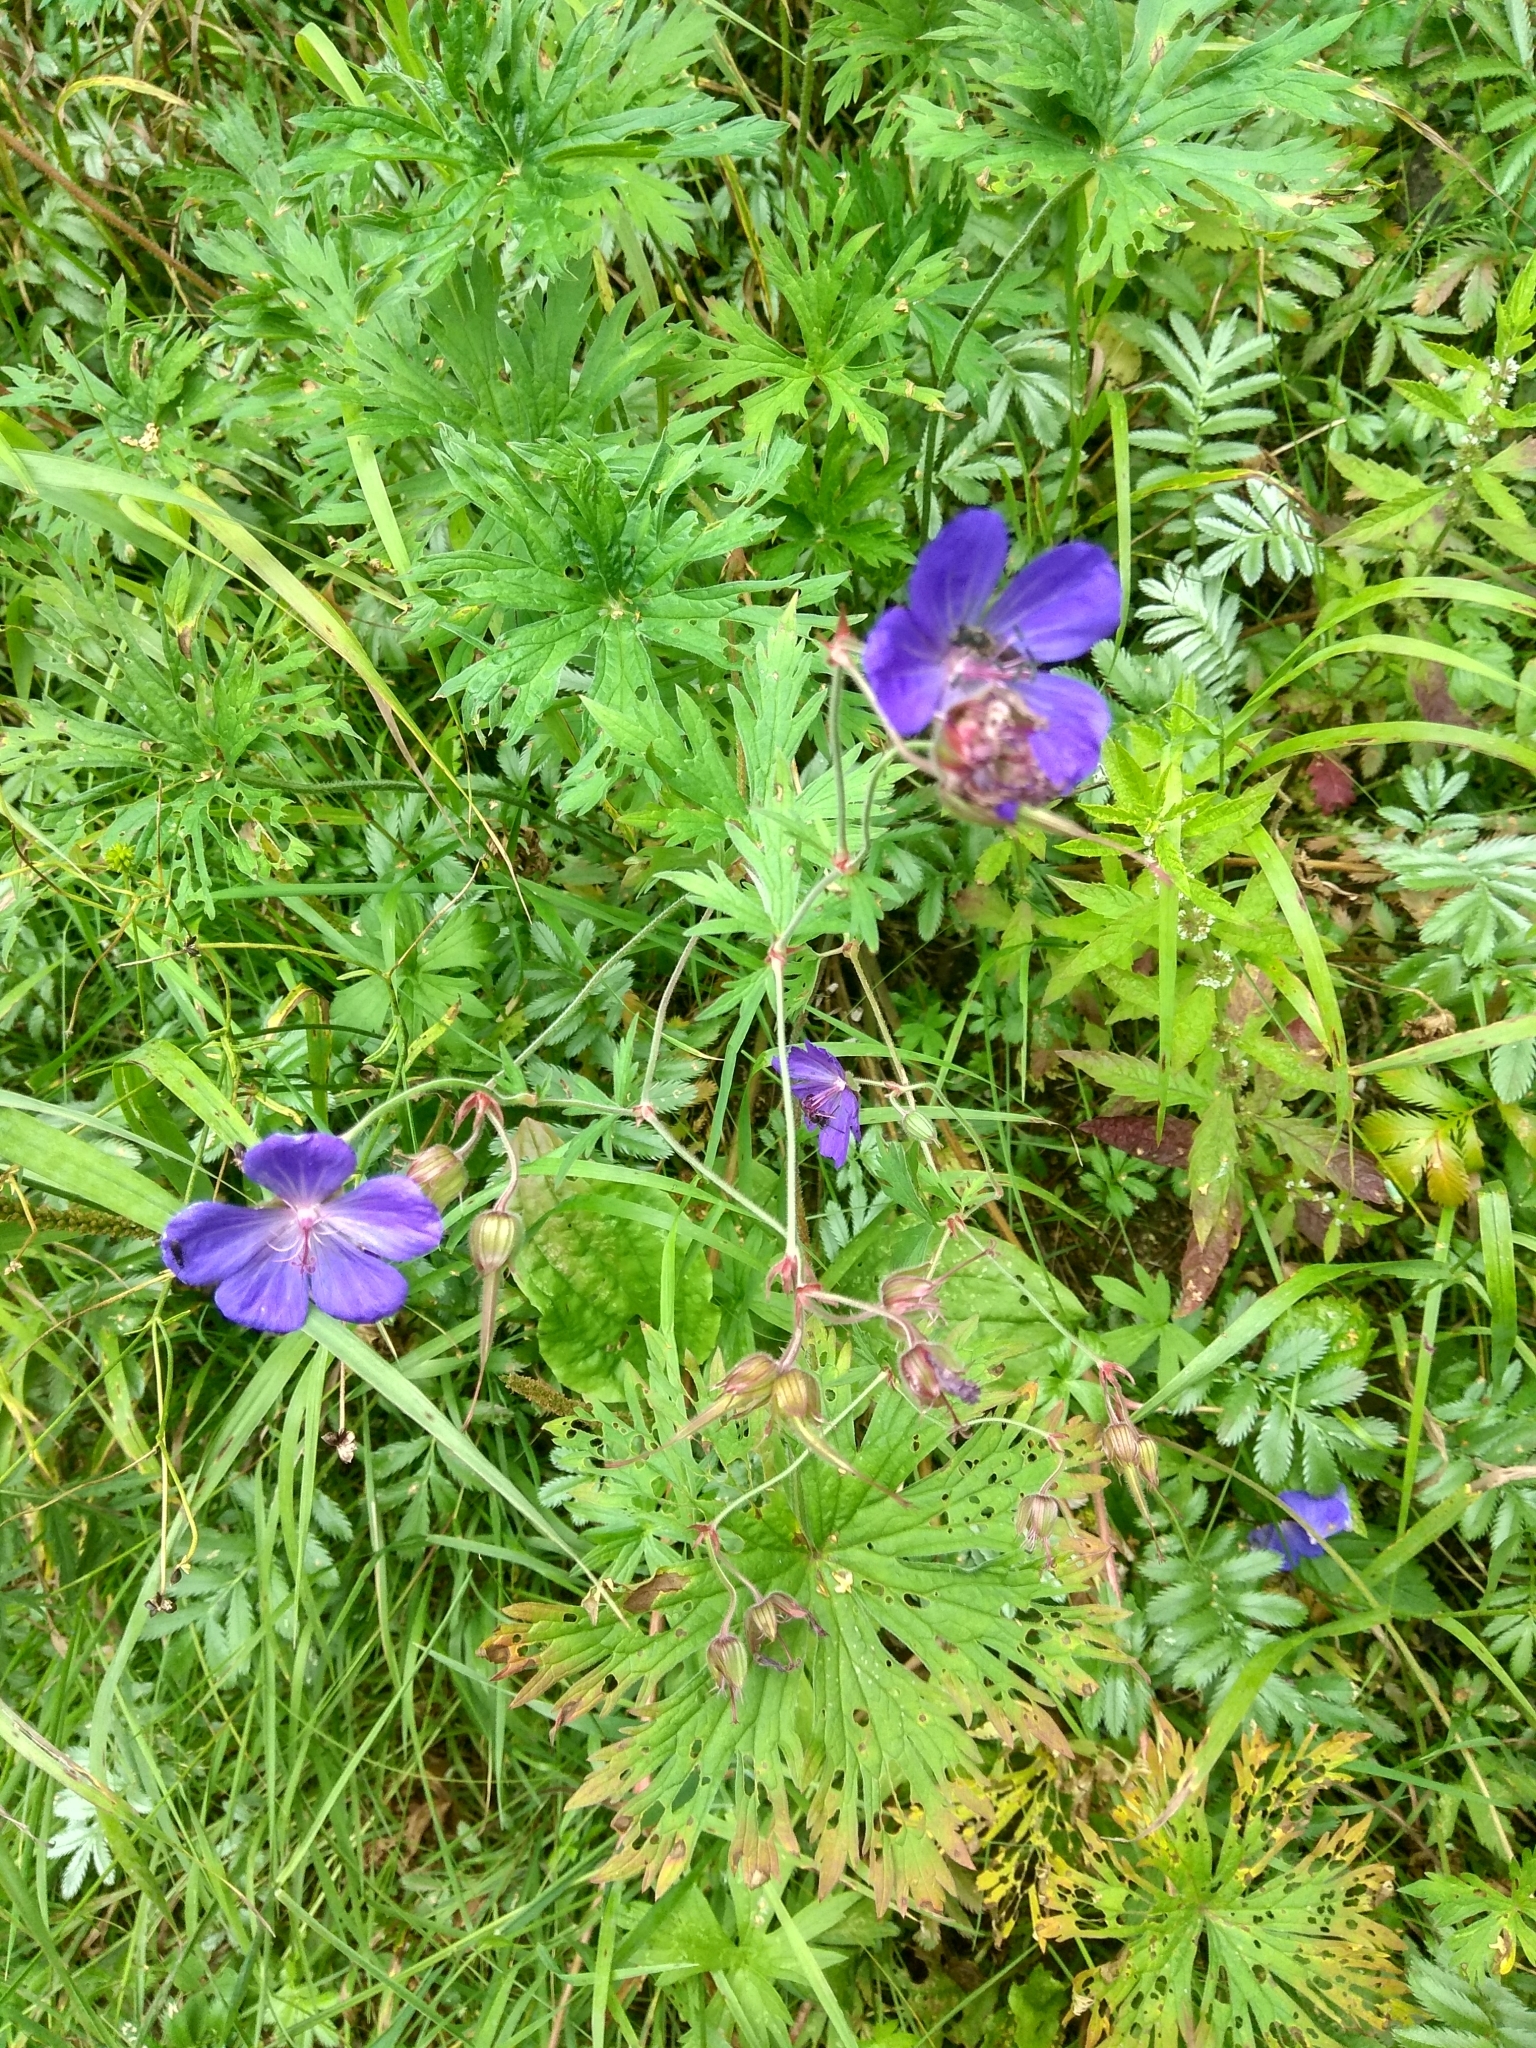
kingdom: Plantae
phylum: Tracheophyta
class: Magnoliopsida
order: Geraniales
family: Geraniaceae
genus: Geranium
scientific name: Geranium pratense
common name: Meadow crane's-bill
